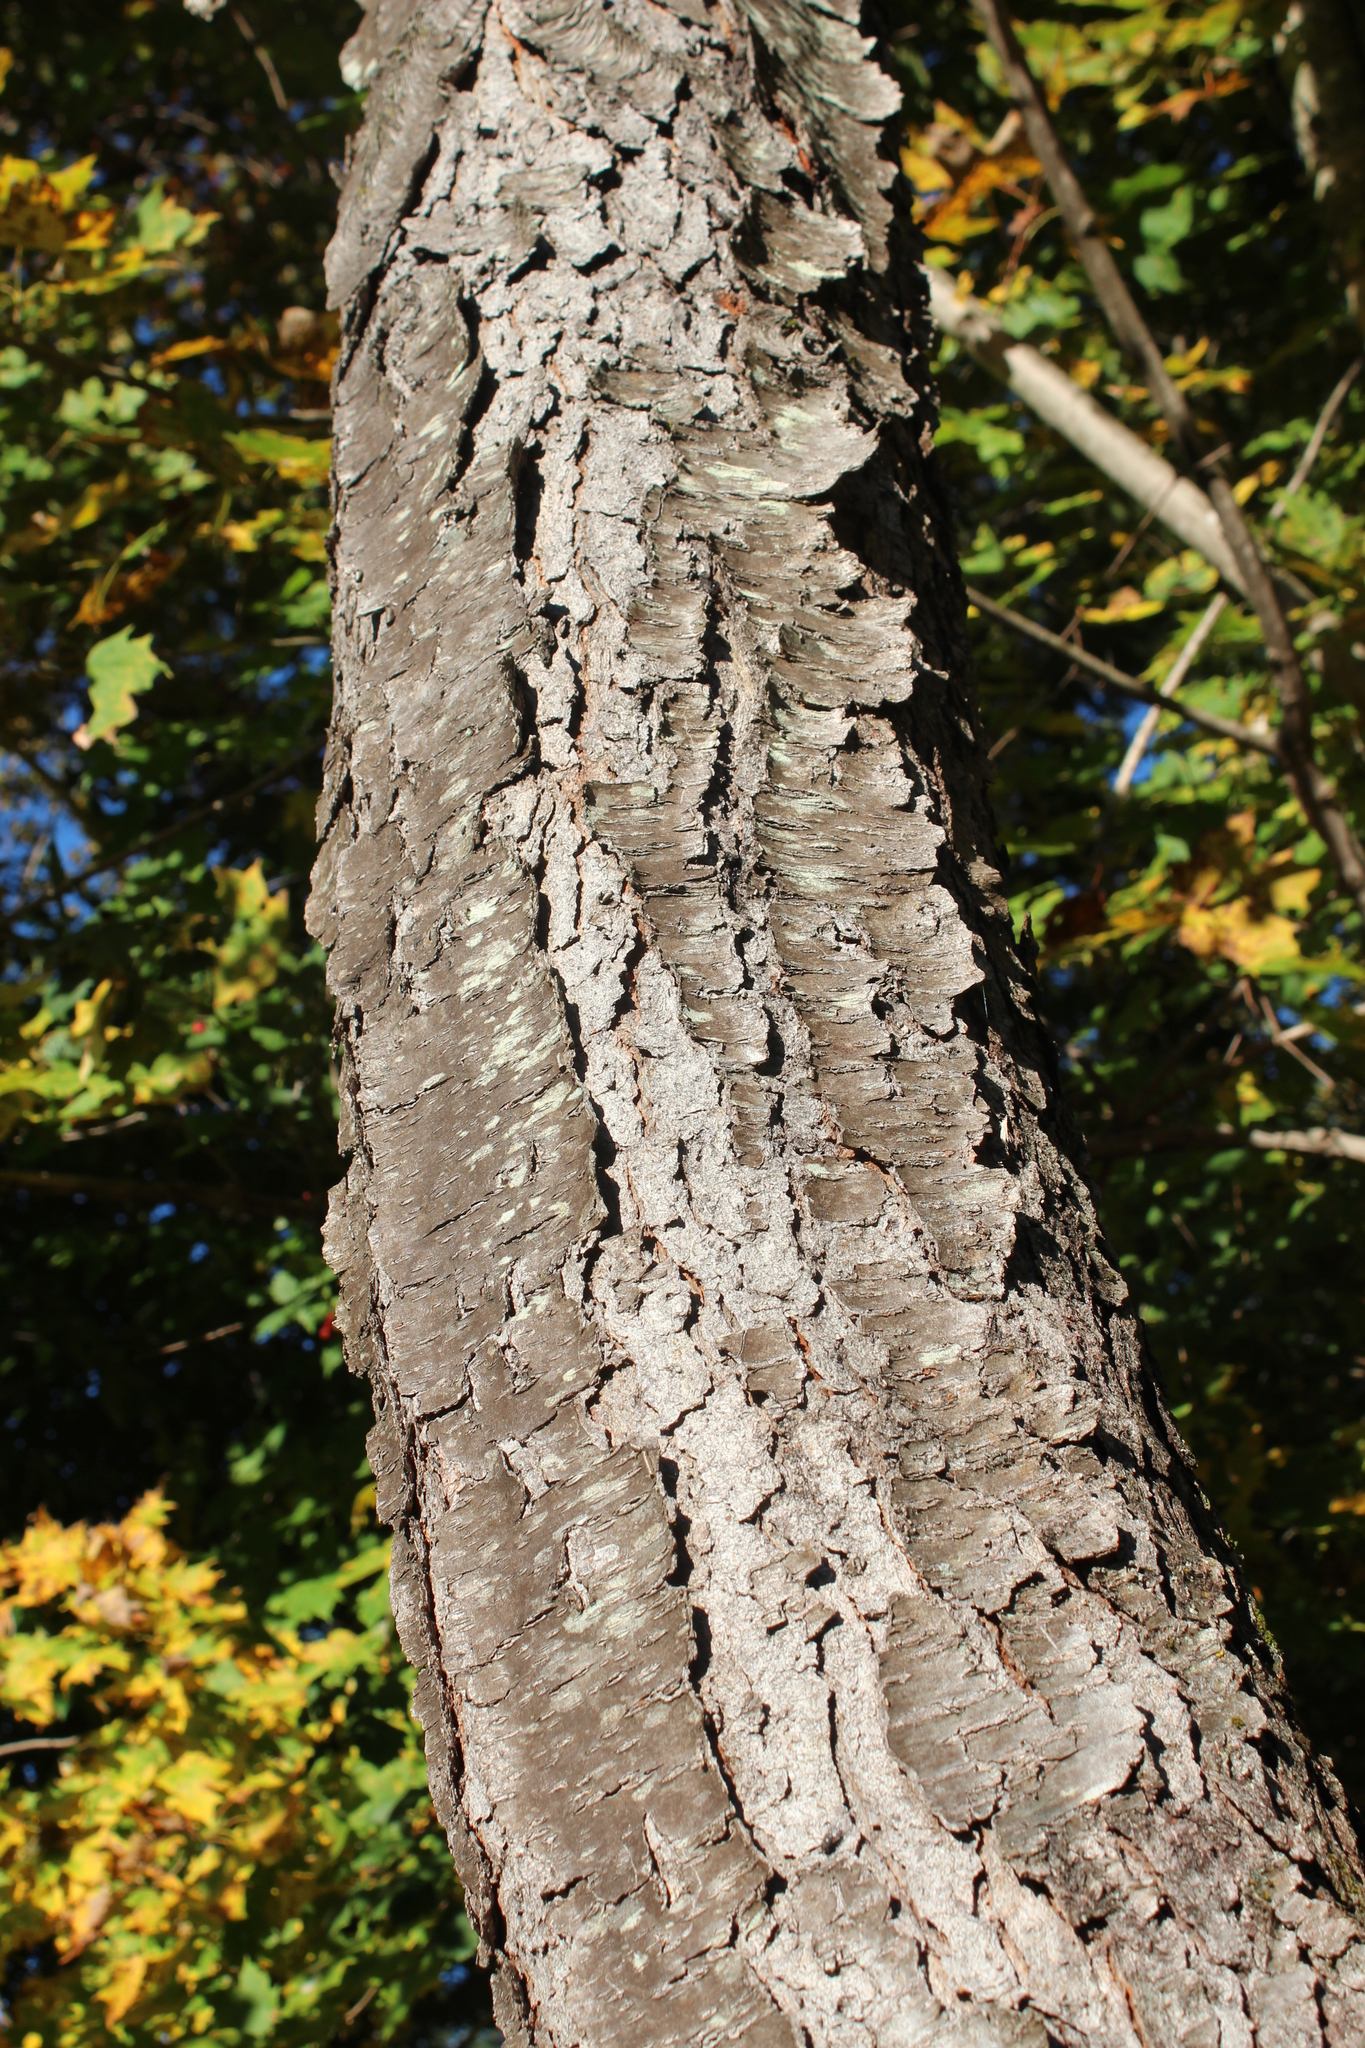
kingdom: Plantae
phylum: Tracheophyta
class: Magnoliopsida
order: Fagales
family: Betulaceae
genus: Betula
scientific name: Betula lenta
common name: Black birch
